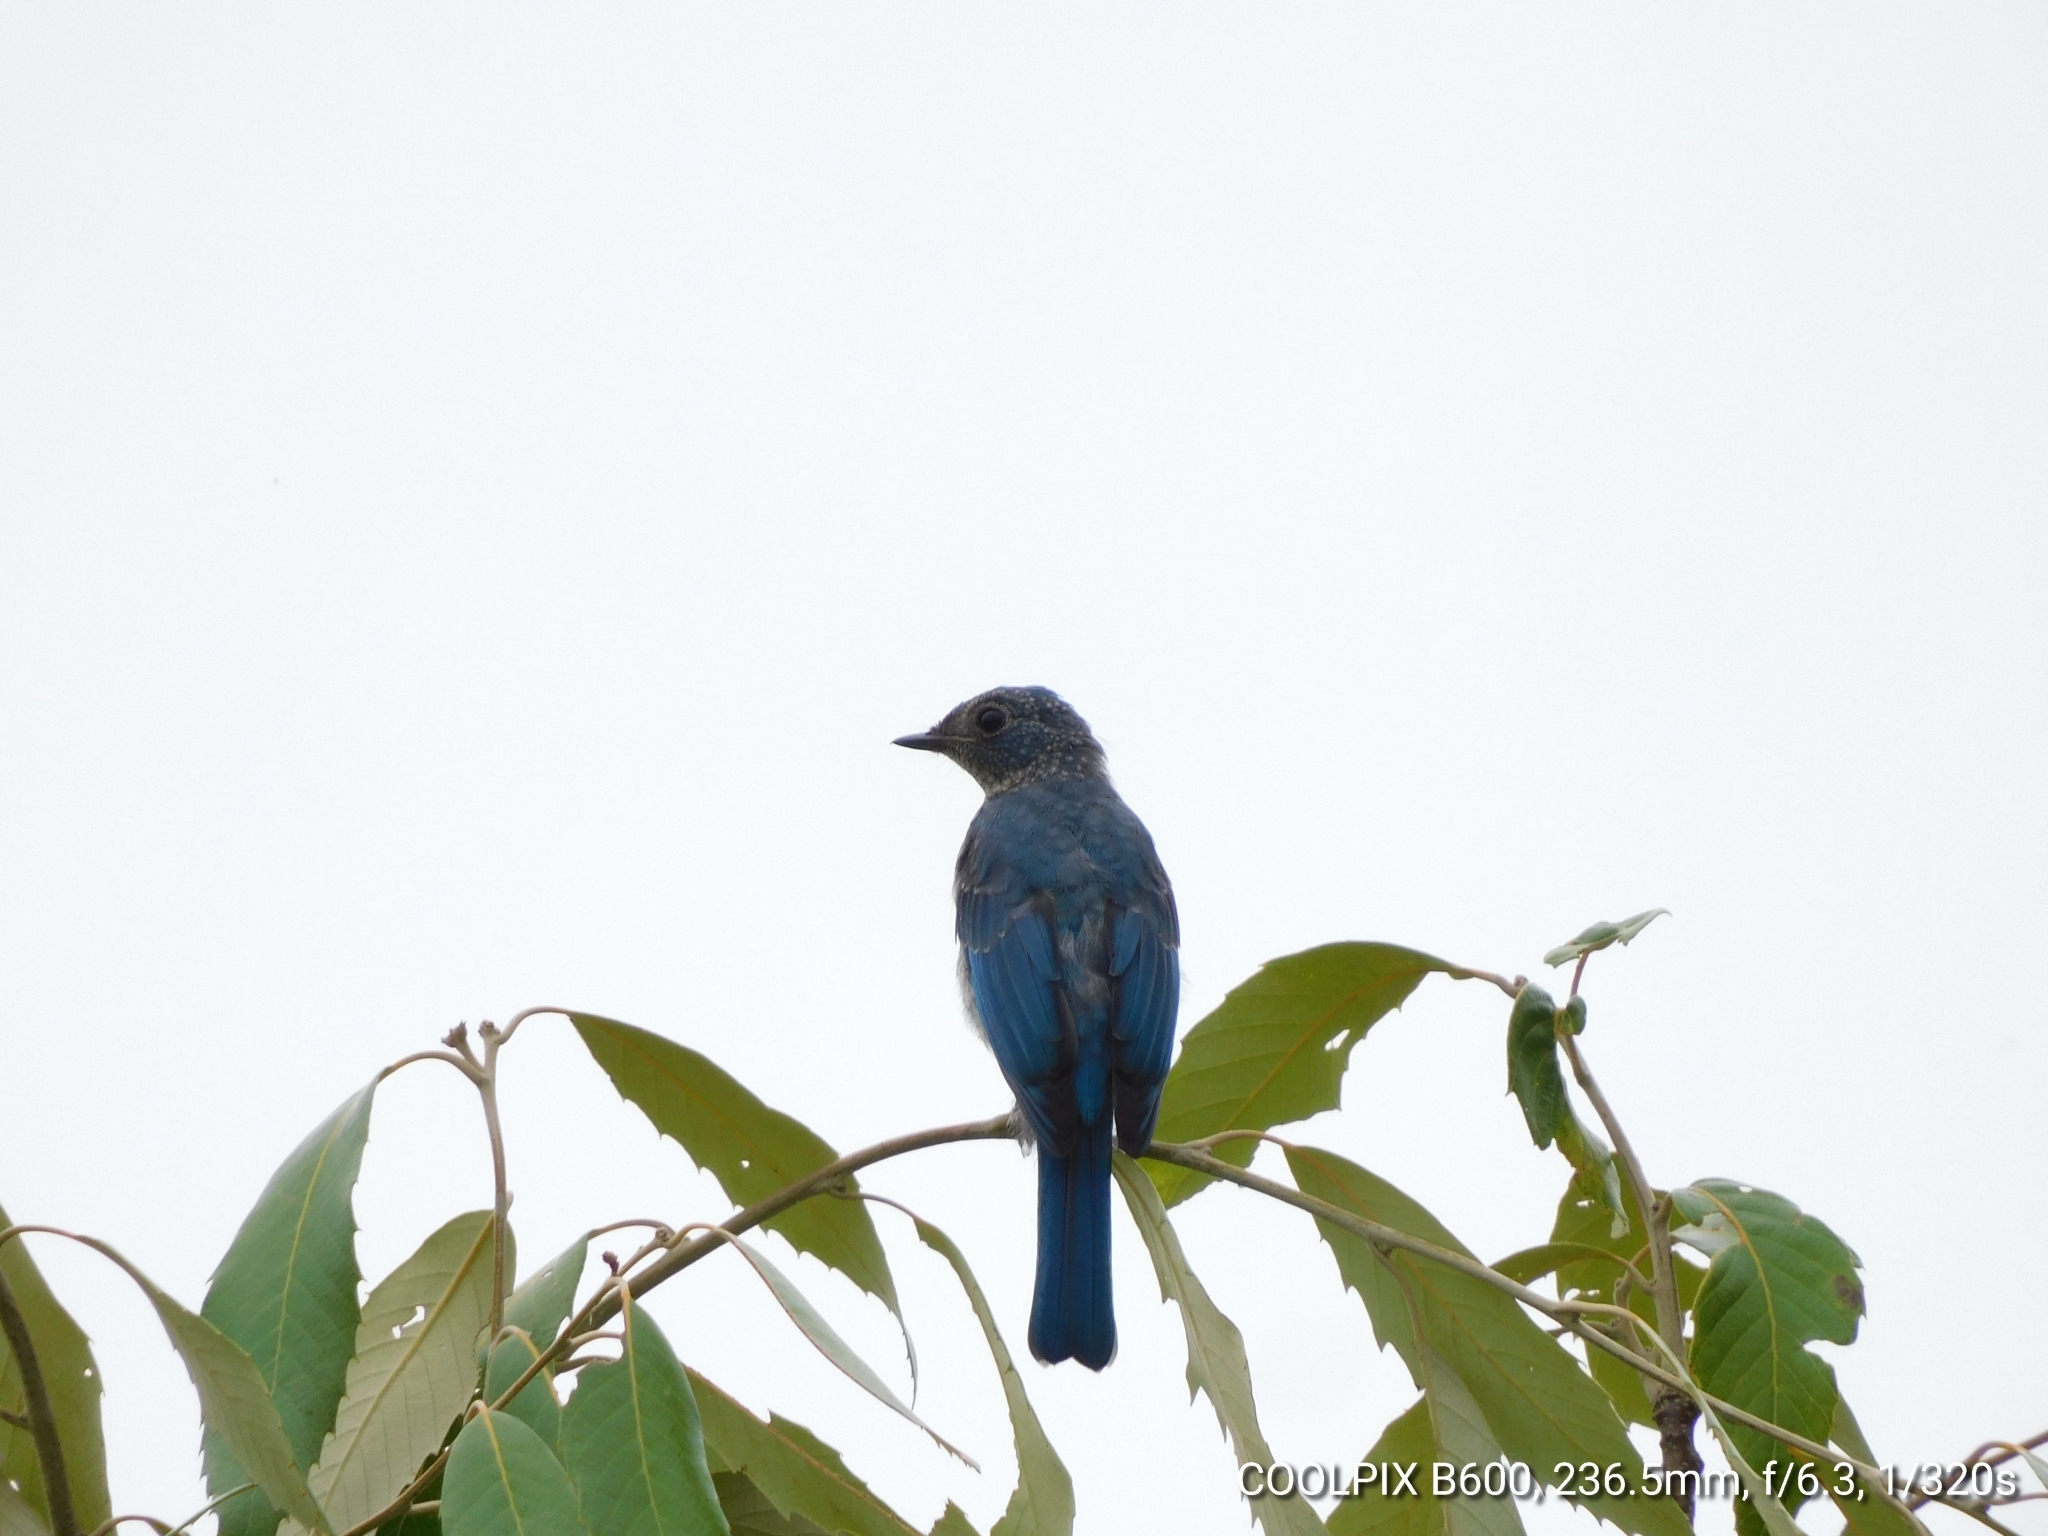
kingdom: Animalia
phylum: Chordata
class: Aves
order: Passeriformes
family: Muscicapidae
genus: Eumyias
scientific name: Eumyias thalassinus
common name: Verditer flycatcher
